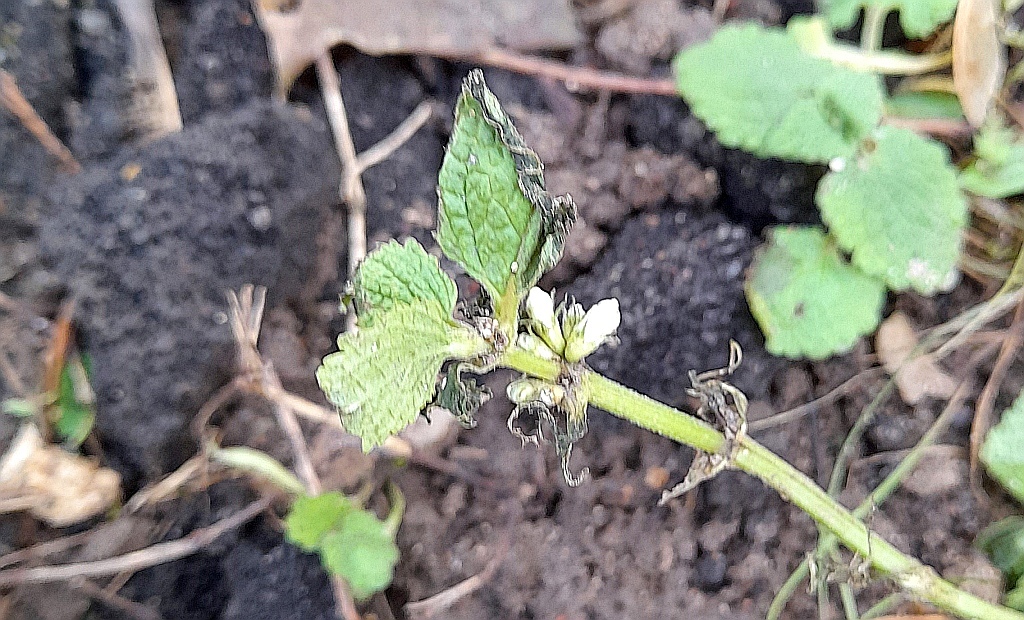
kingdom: Plantae
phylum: Tracheophyta
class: Magnoliopsida
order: Lamiales
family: Lamiaceae
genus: Lamium
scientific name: Lamium album
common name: White dead-nettle
